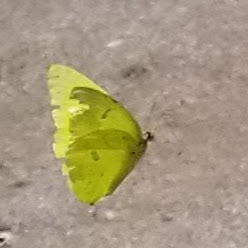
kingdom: Animalia
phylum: Arthropoda
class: Insecta
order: Lepidoptera
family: Pieridae
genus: Phoebis
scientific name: Phoebis sennae
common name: Cloudless sulphur
